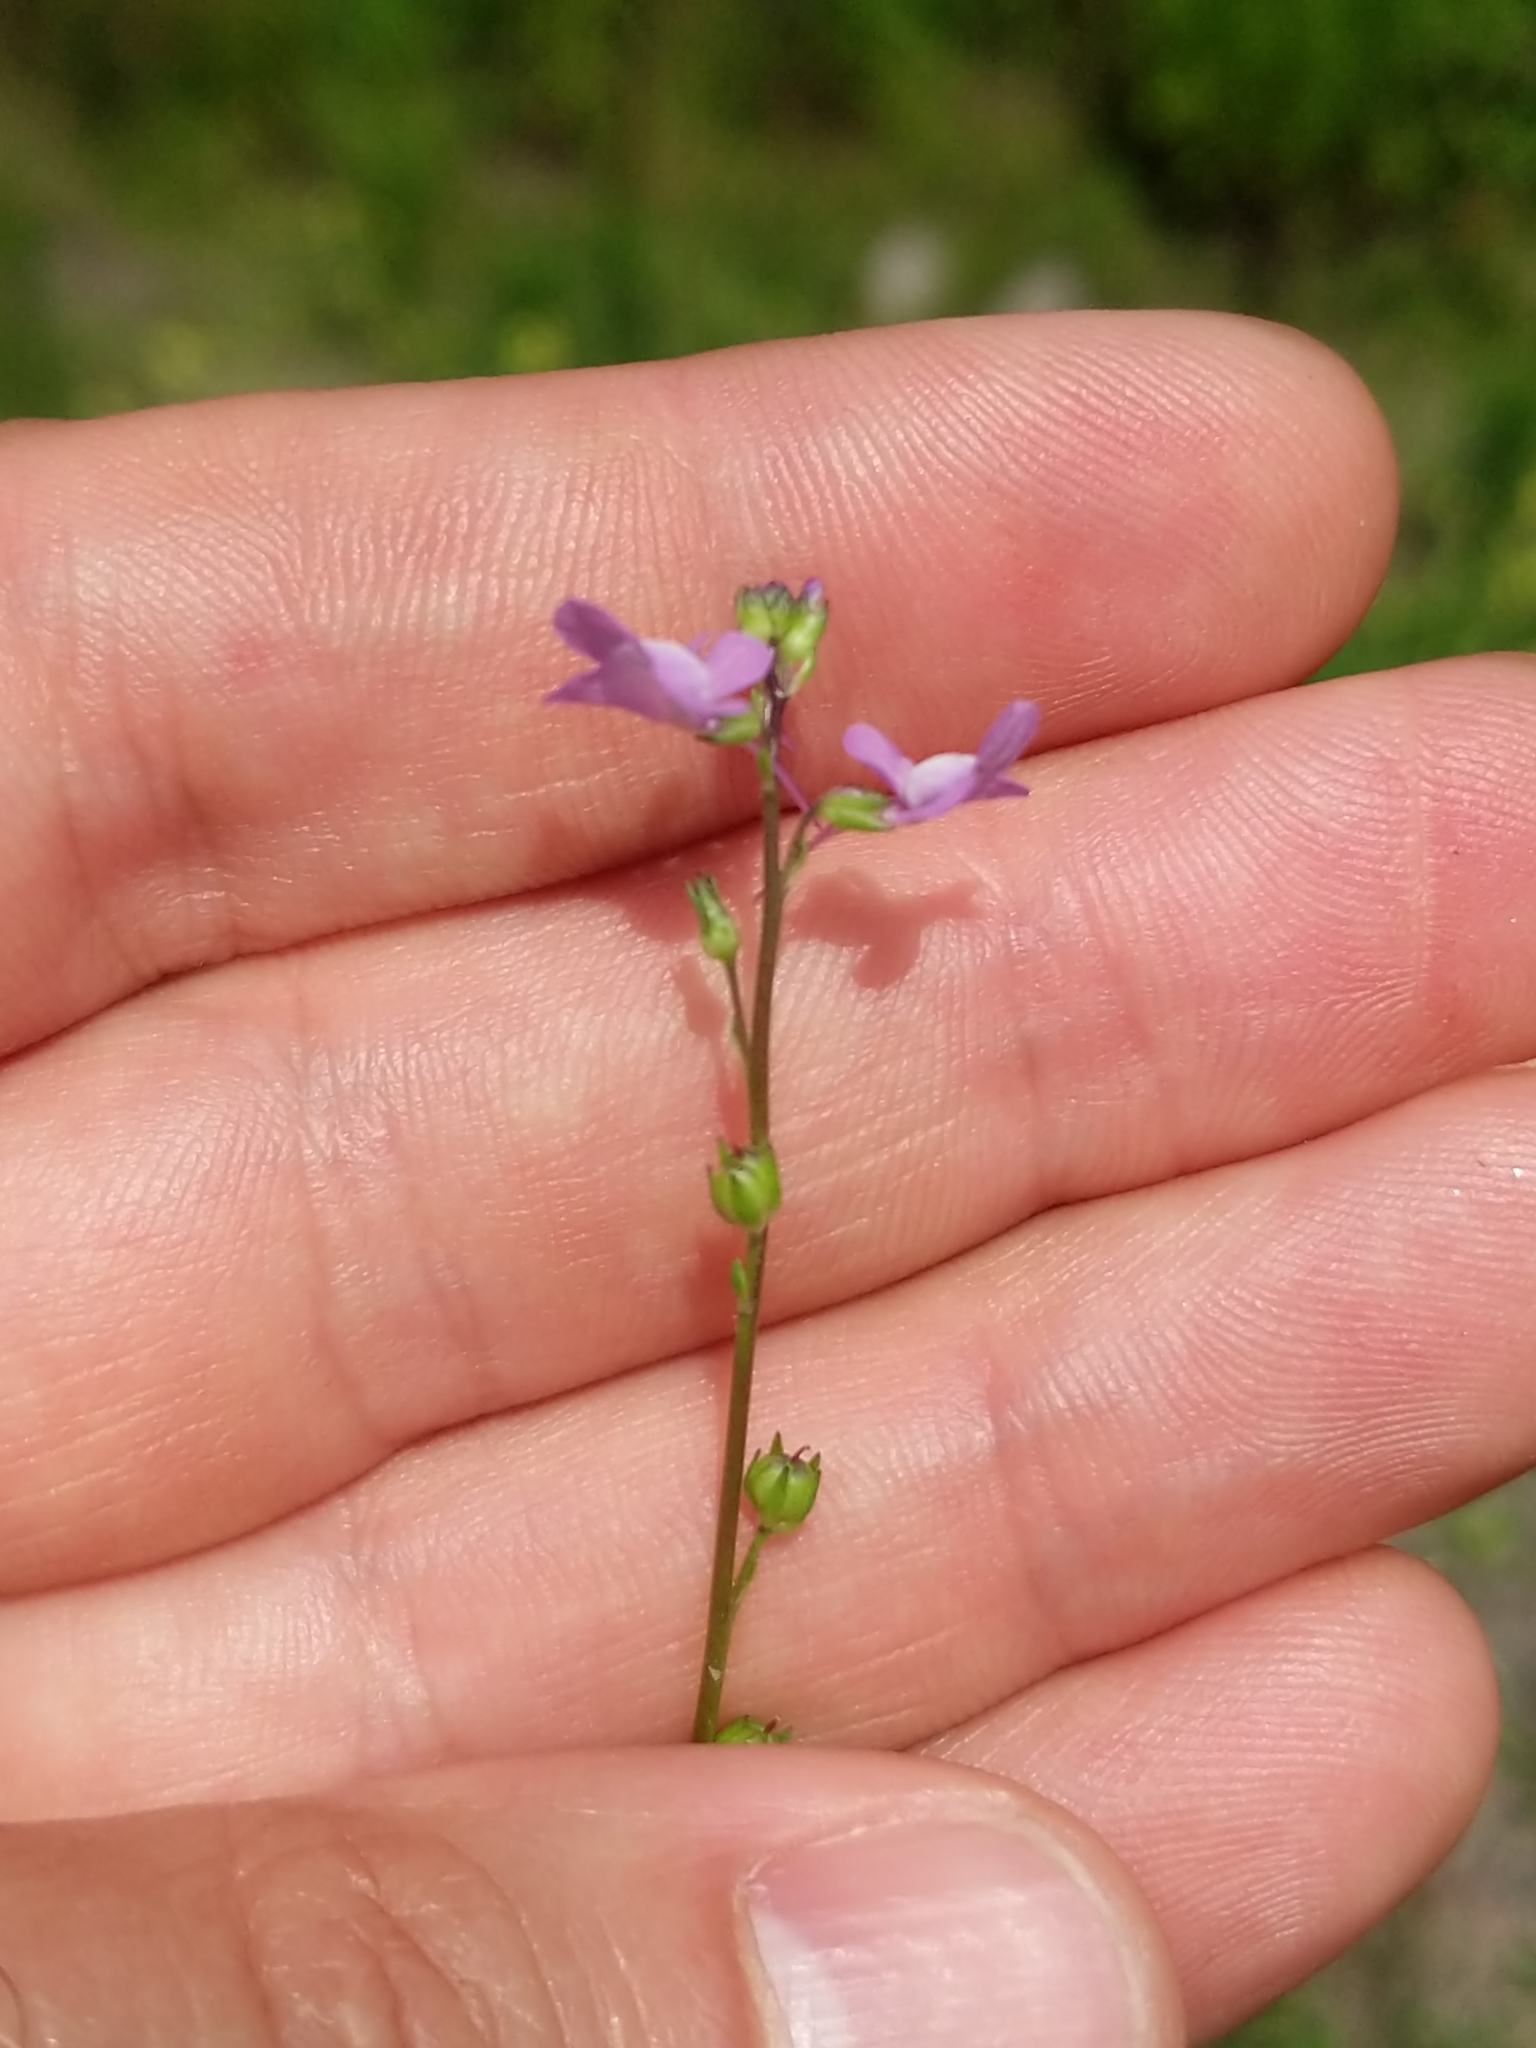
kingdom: Plantae
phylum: Tracheophyta
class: Magnoliopsida
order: Lamiales
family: Plantaginaceae
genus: Nuttallanthus
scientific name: Nuttallanthus canadensis
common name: Blue toadflax
